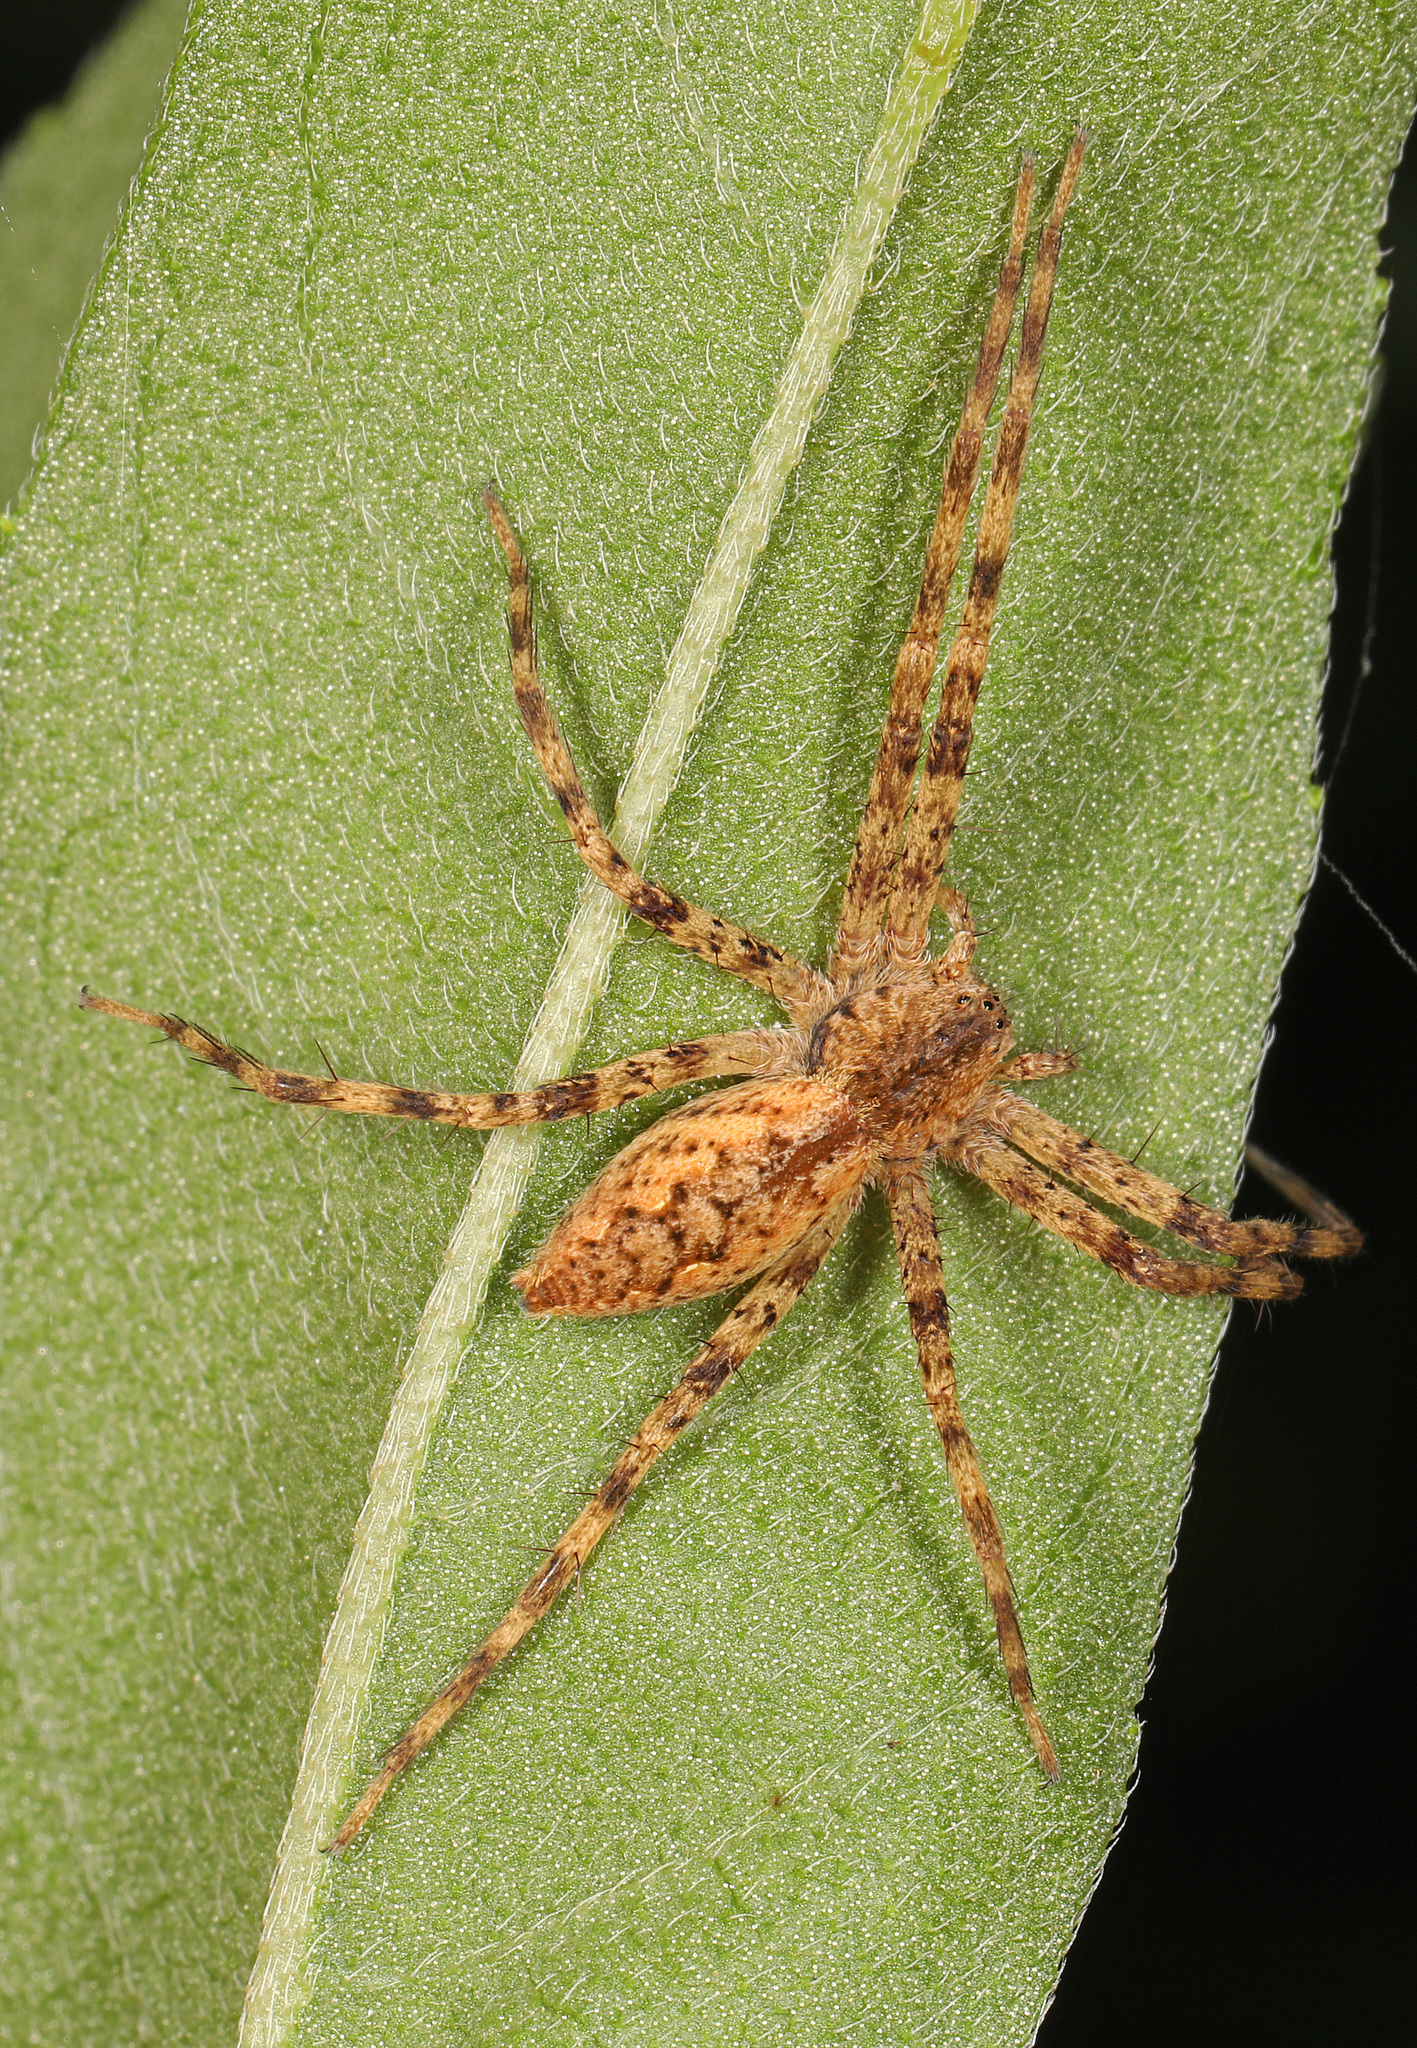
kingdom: Animalia
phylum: Arthropoda
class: Arachnida
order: Araneae
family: Pisauridae
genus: Pisaurina
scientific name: Pisaurina mira
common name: American nursery web spider
